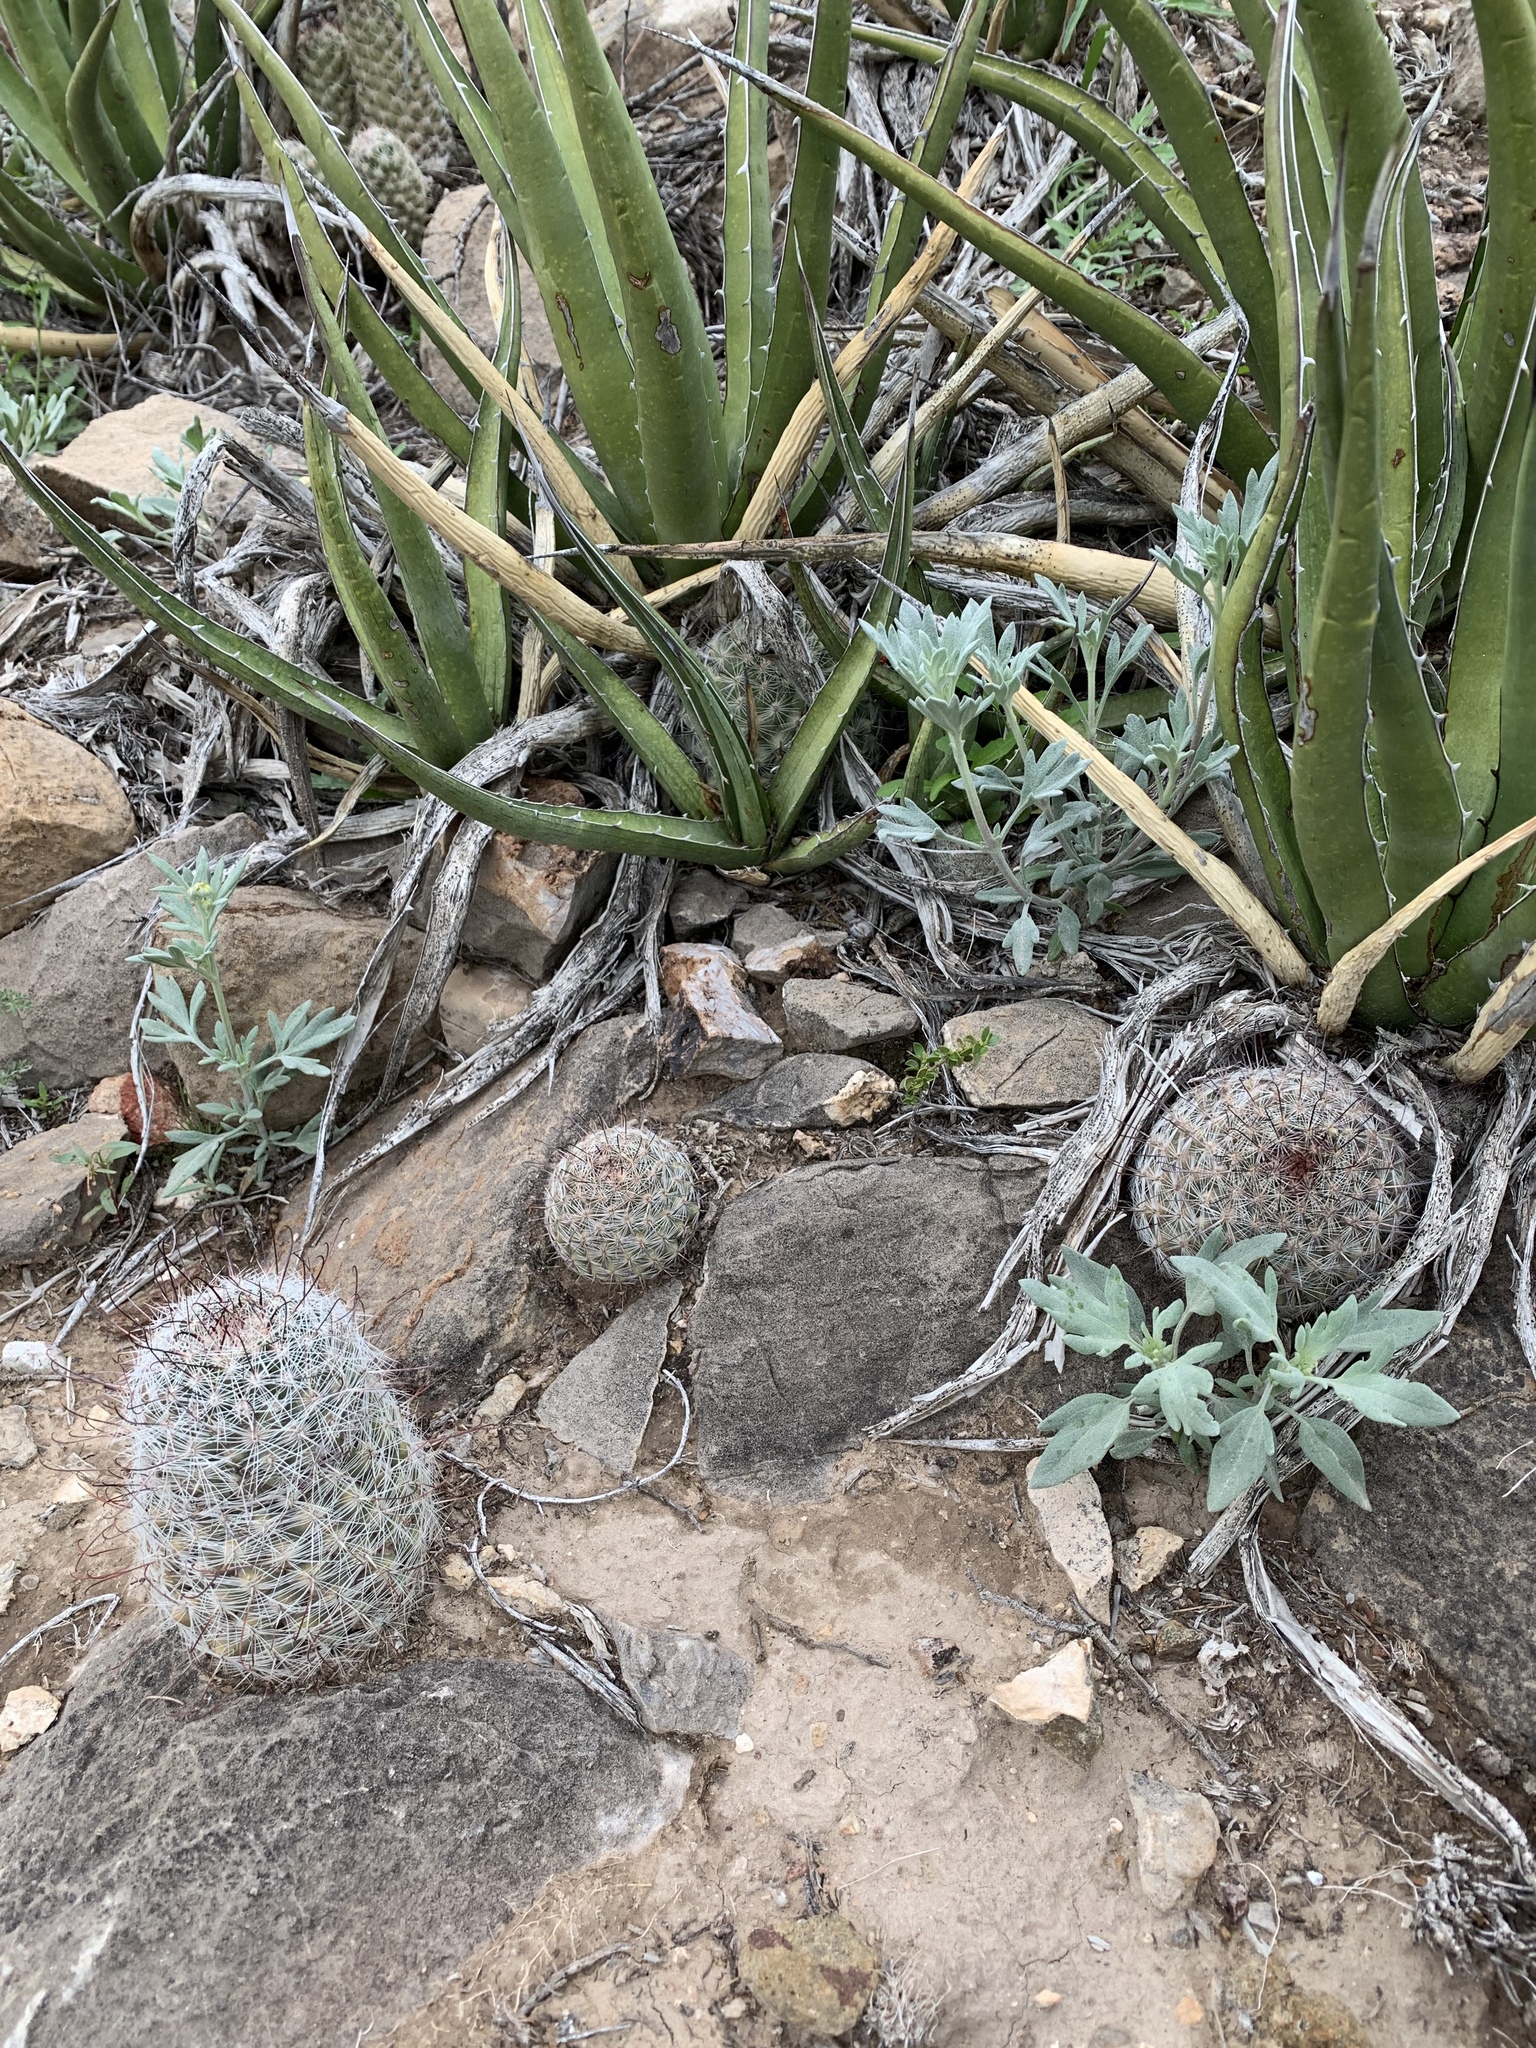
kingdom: Plantae
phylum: Tracheophyta
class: Magnoliopsida
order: Caryophyllales
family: Cactaceae
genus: Cochemiea
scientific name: Cochemiea grahamii
